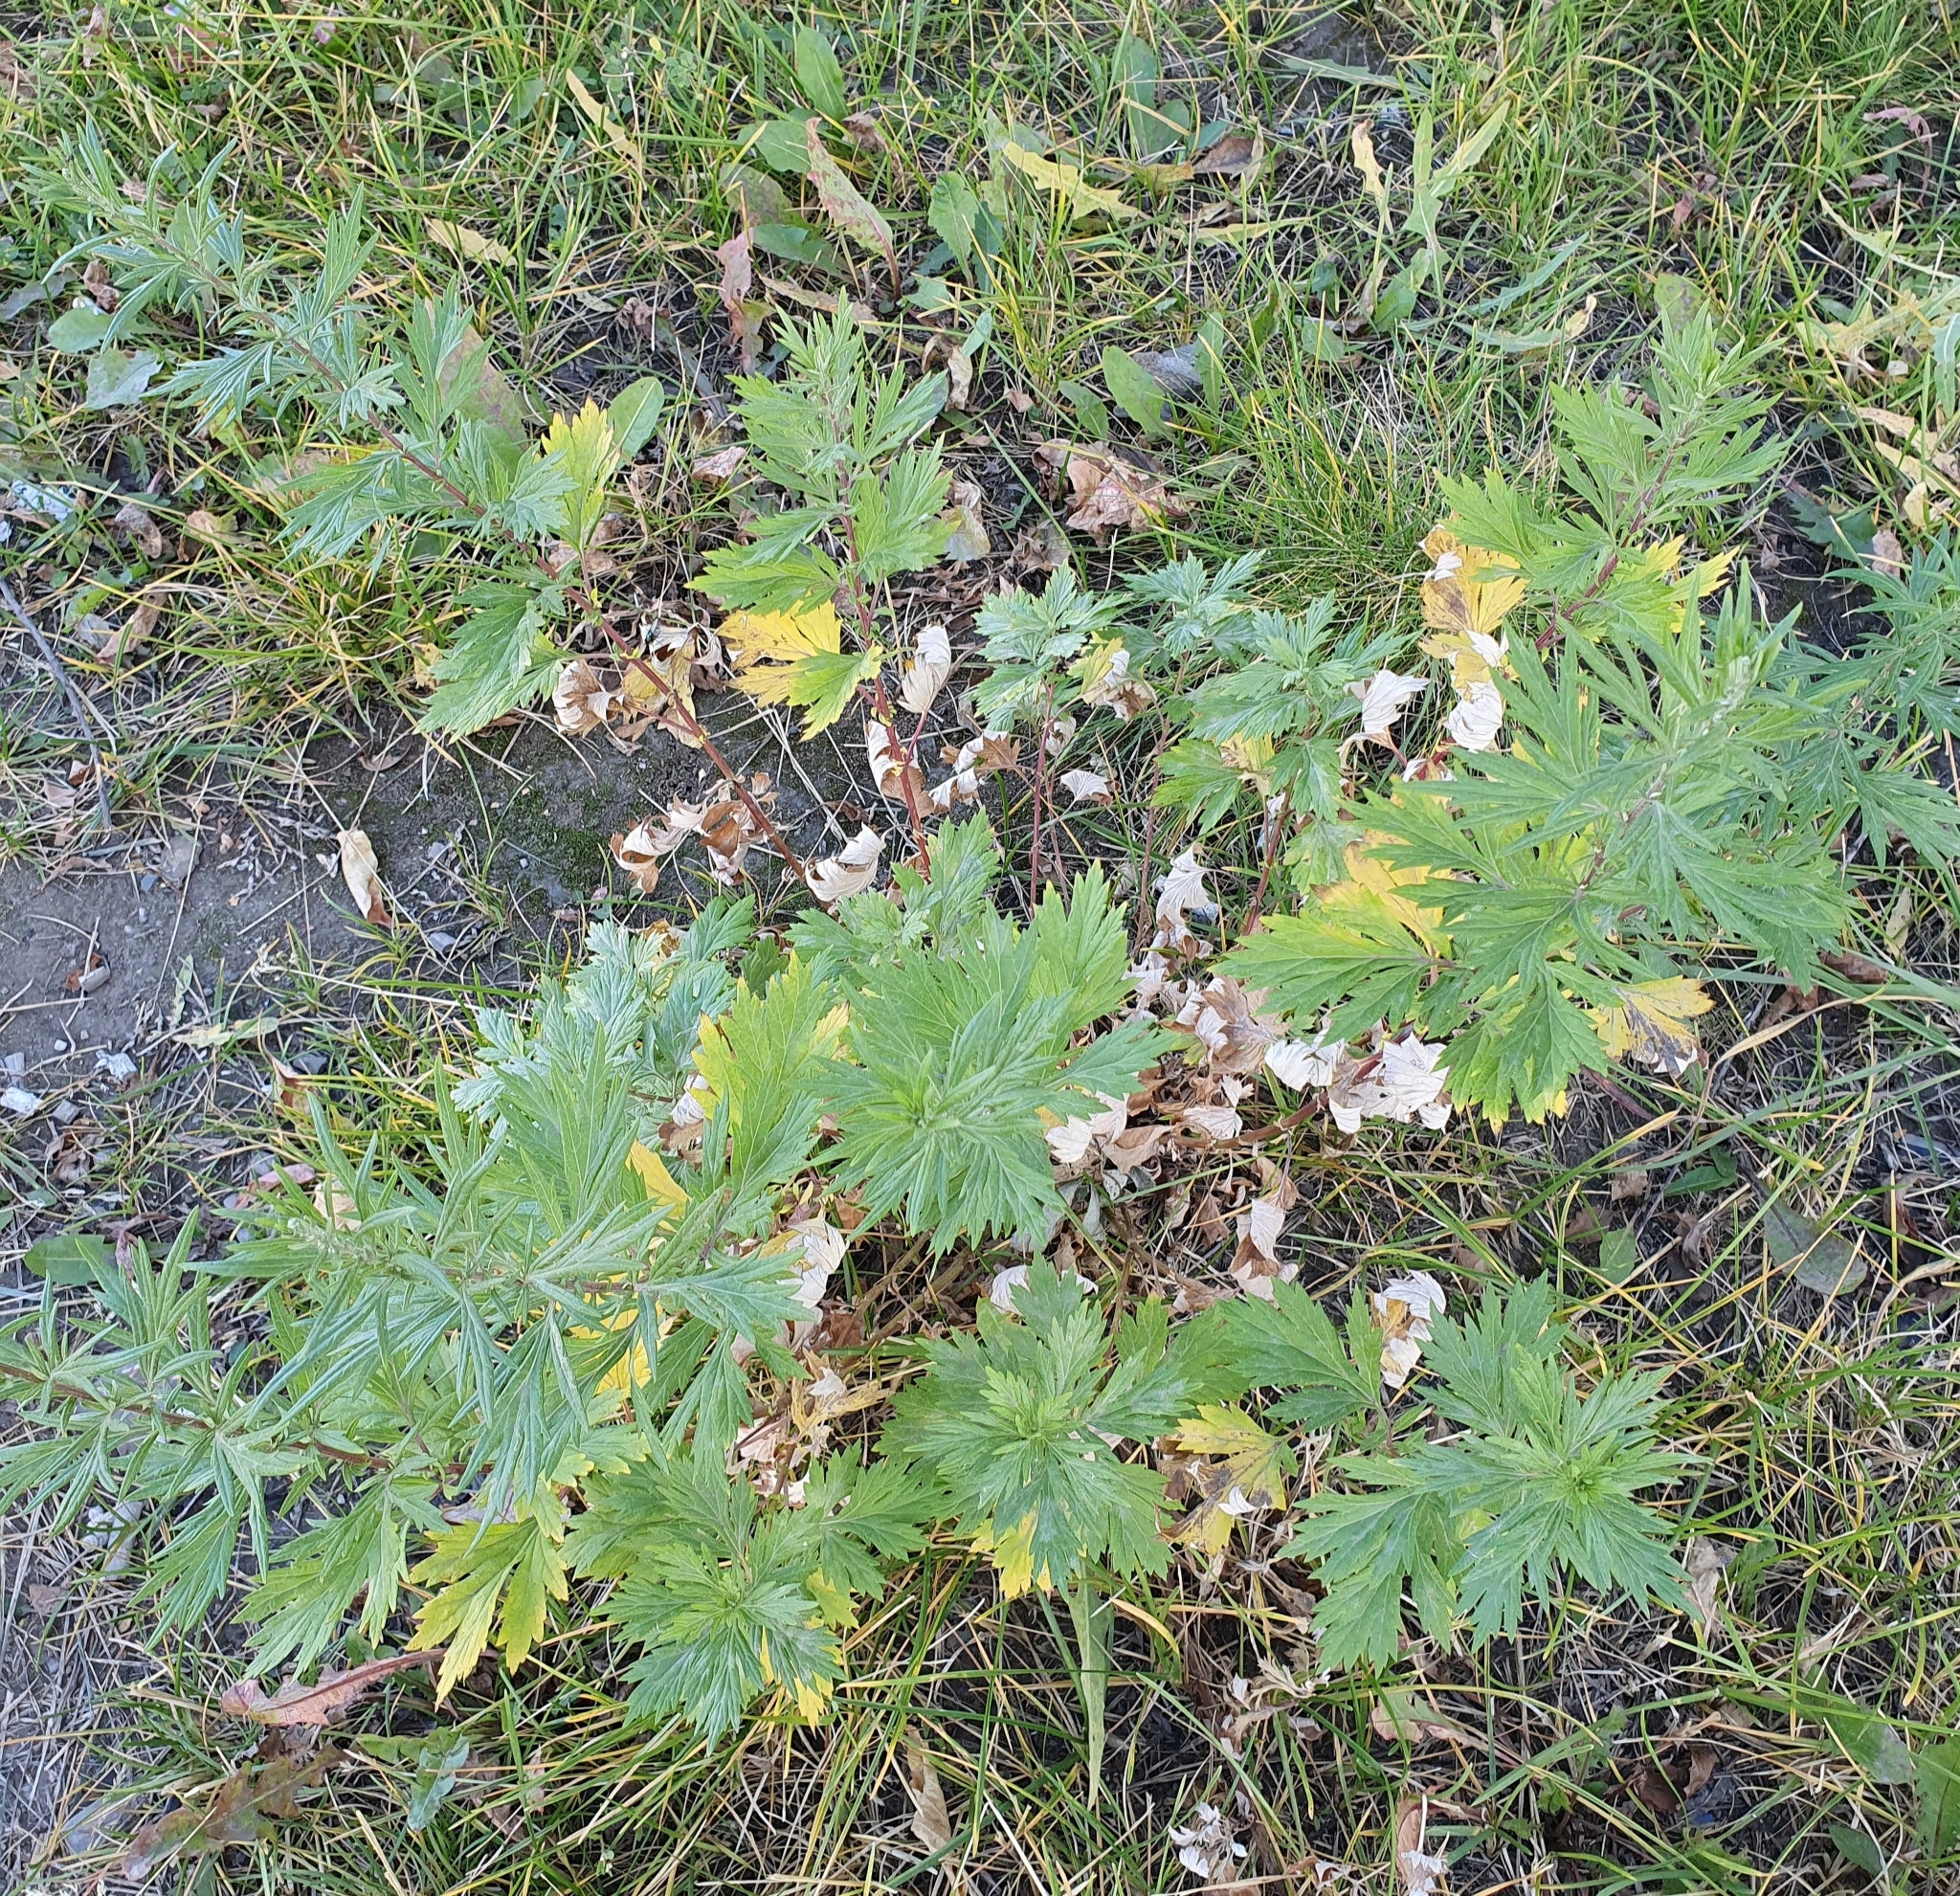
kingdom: Plantae
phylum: Tracheophyta
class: Magnoliopsida
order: Asterales
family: Asteraceae
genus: Artemisia
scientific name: Artemisia vulgaris
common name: Mugwort
